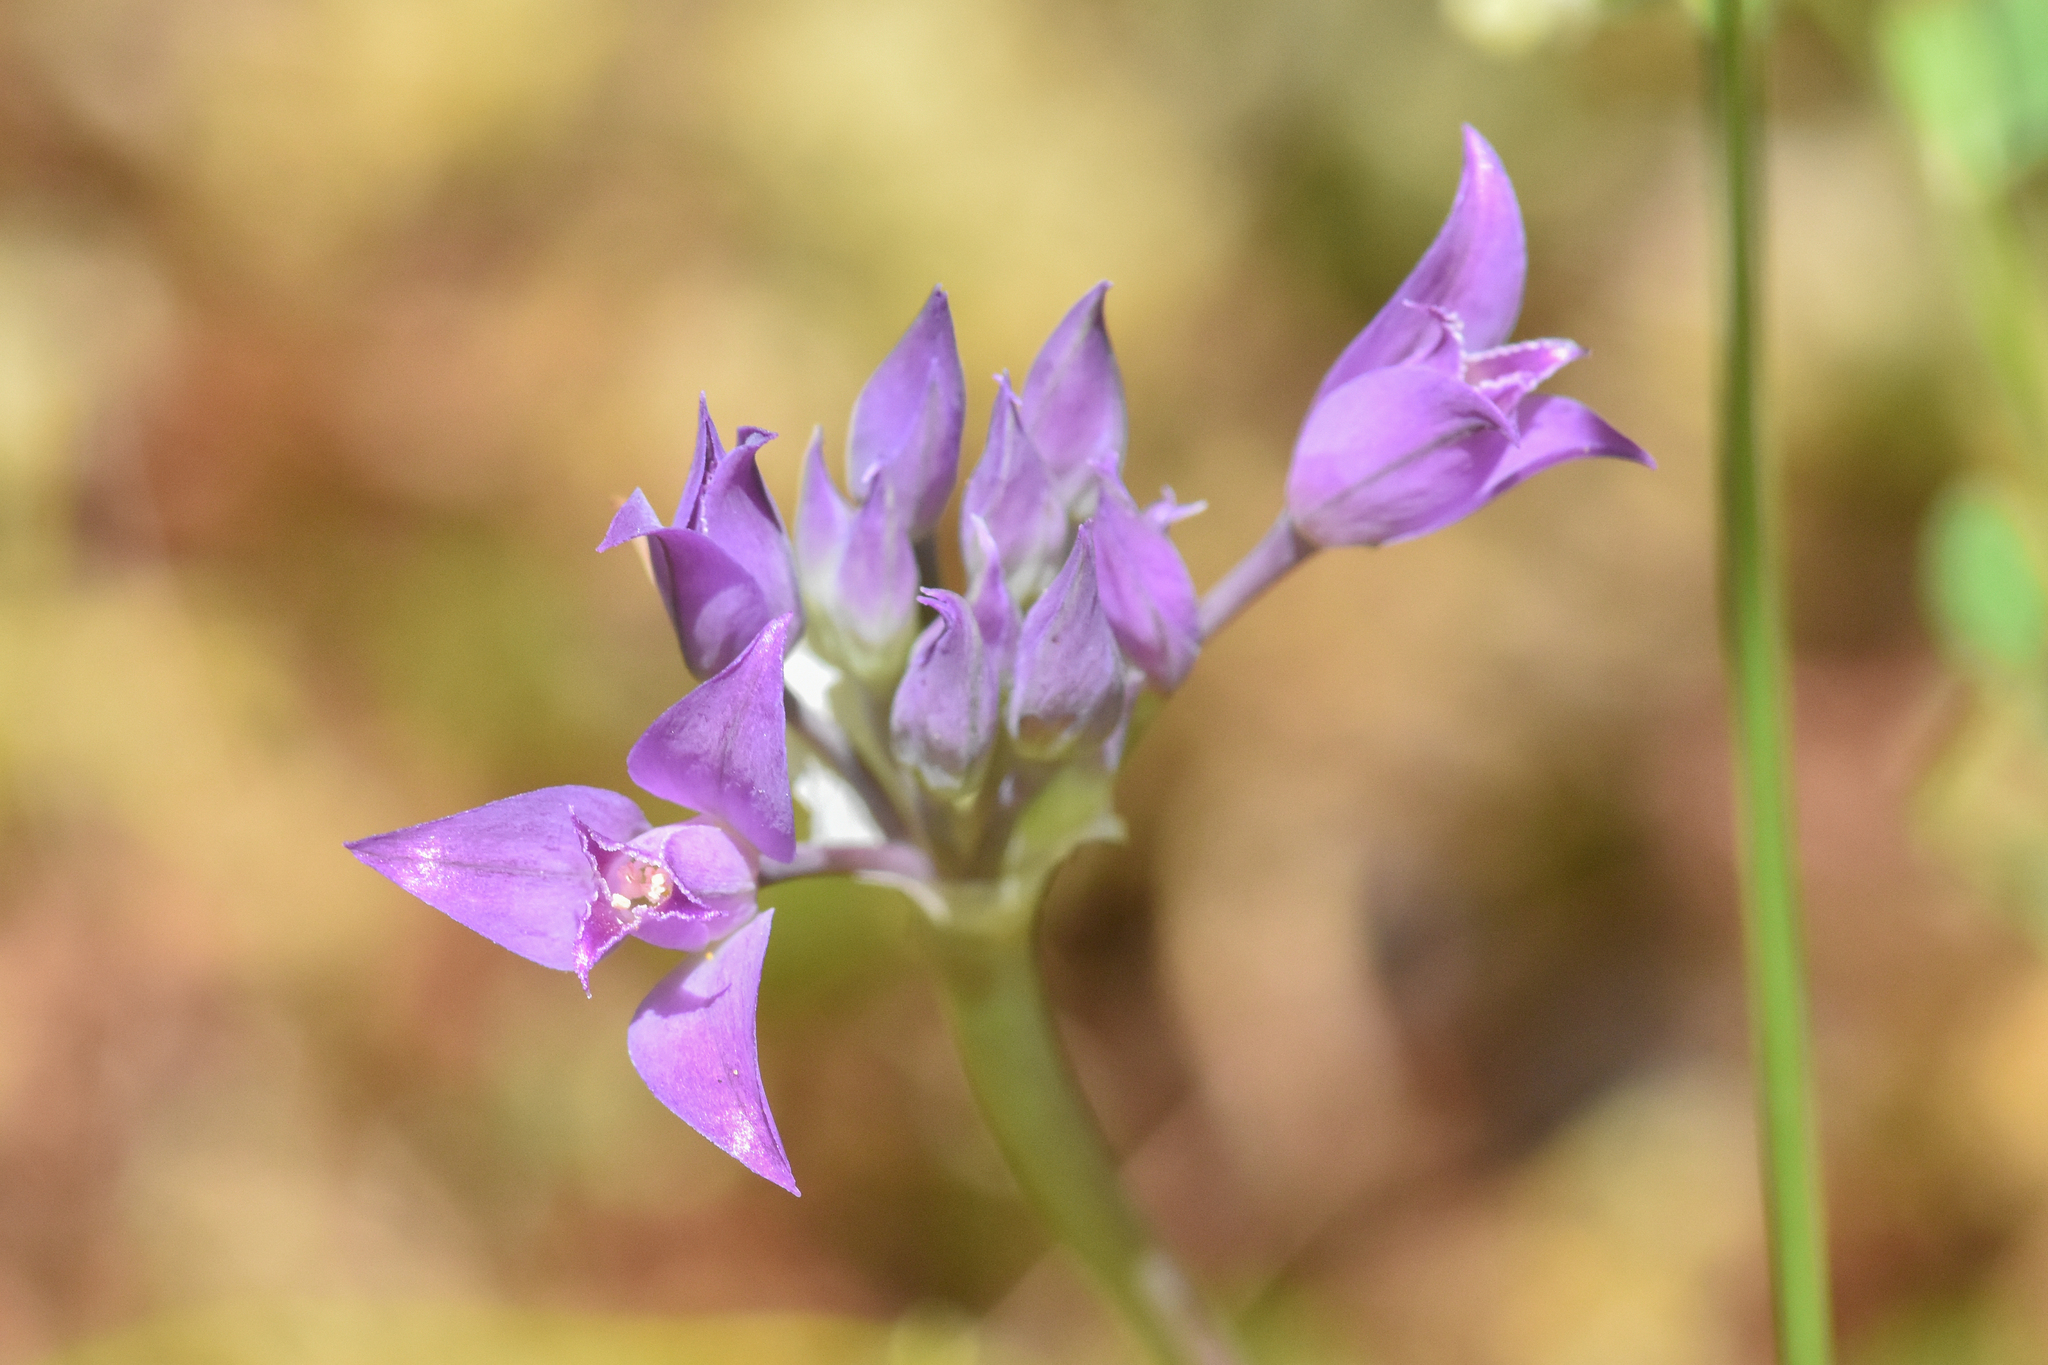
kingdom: Plantae
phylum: Tracheophyta
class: Liliopsida
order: Asparagales
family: Amaryllidaceae
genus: Allium
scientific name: Allium acuminatum
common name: Hooker's onion
